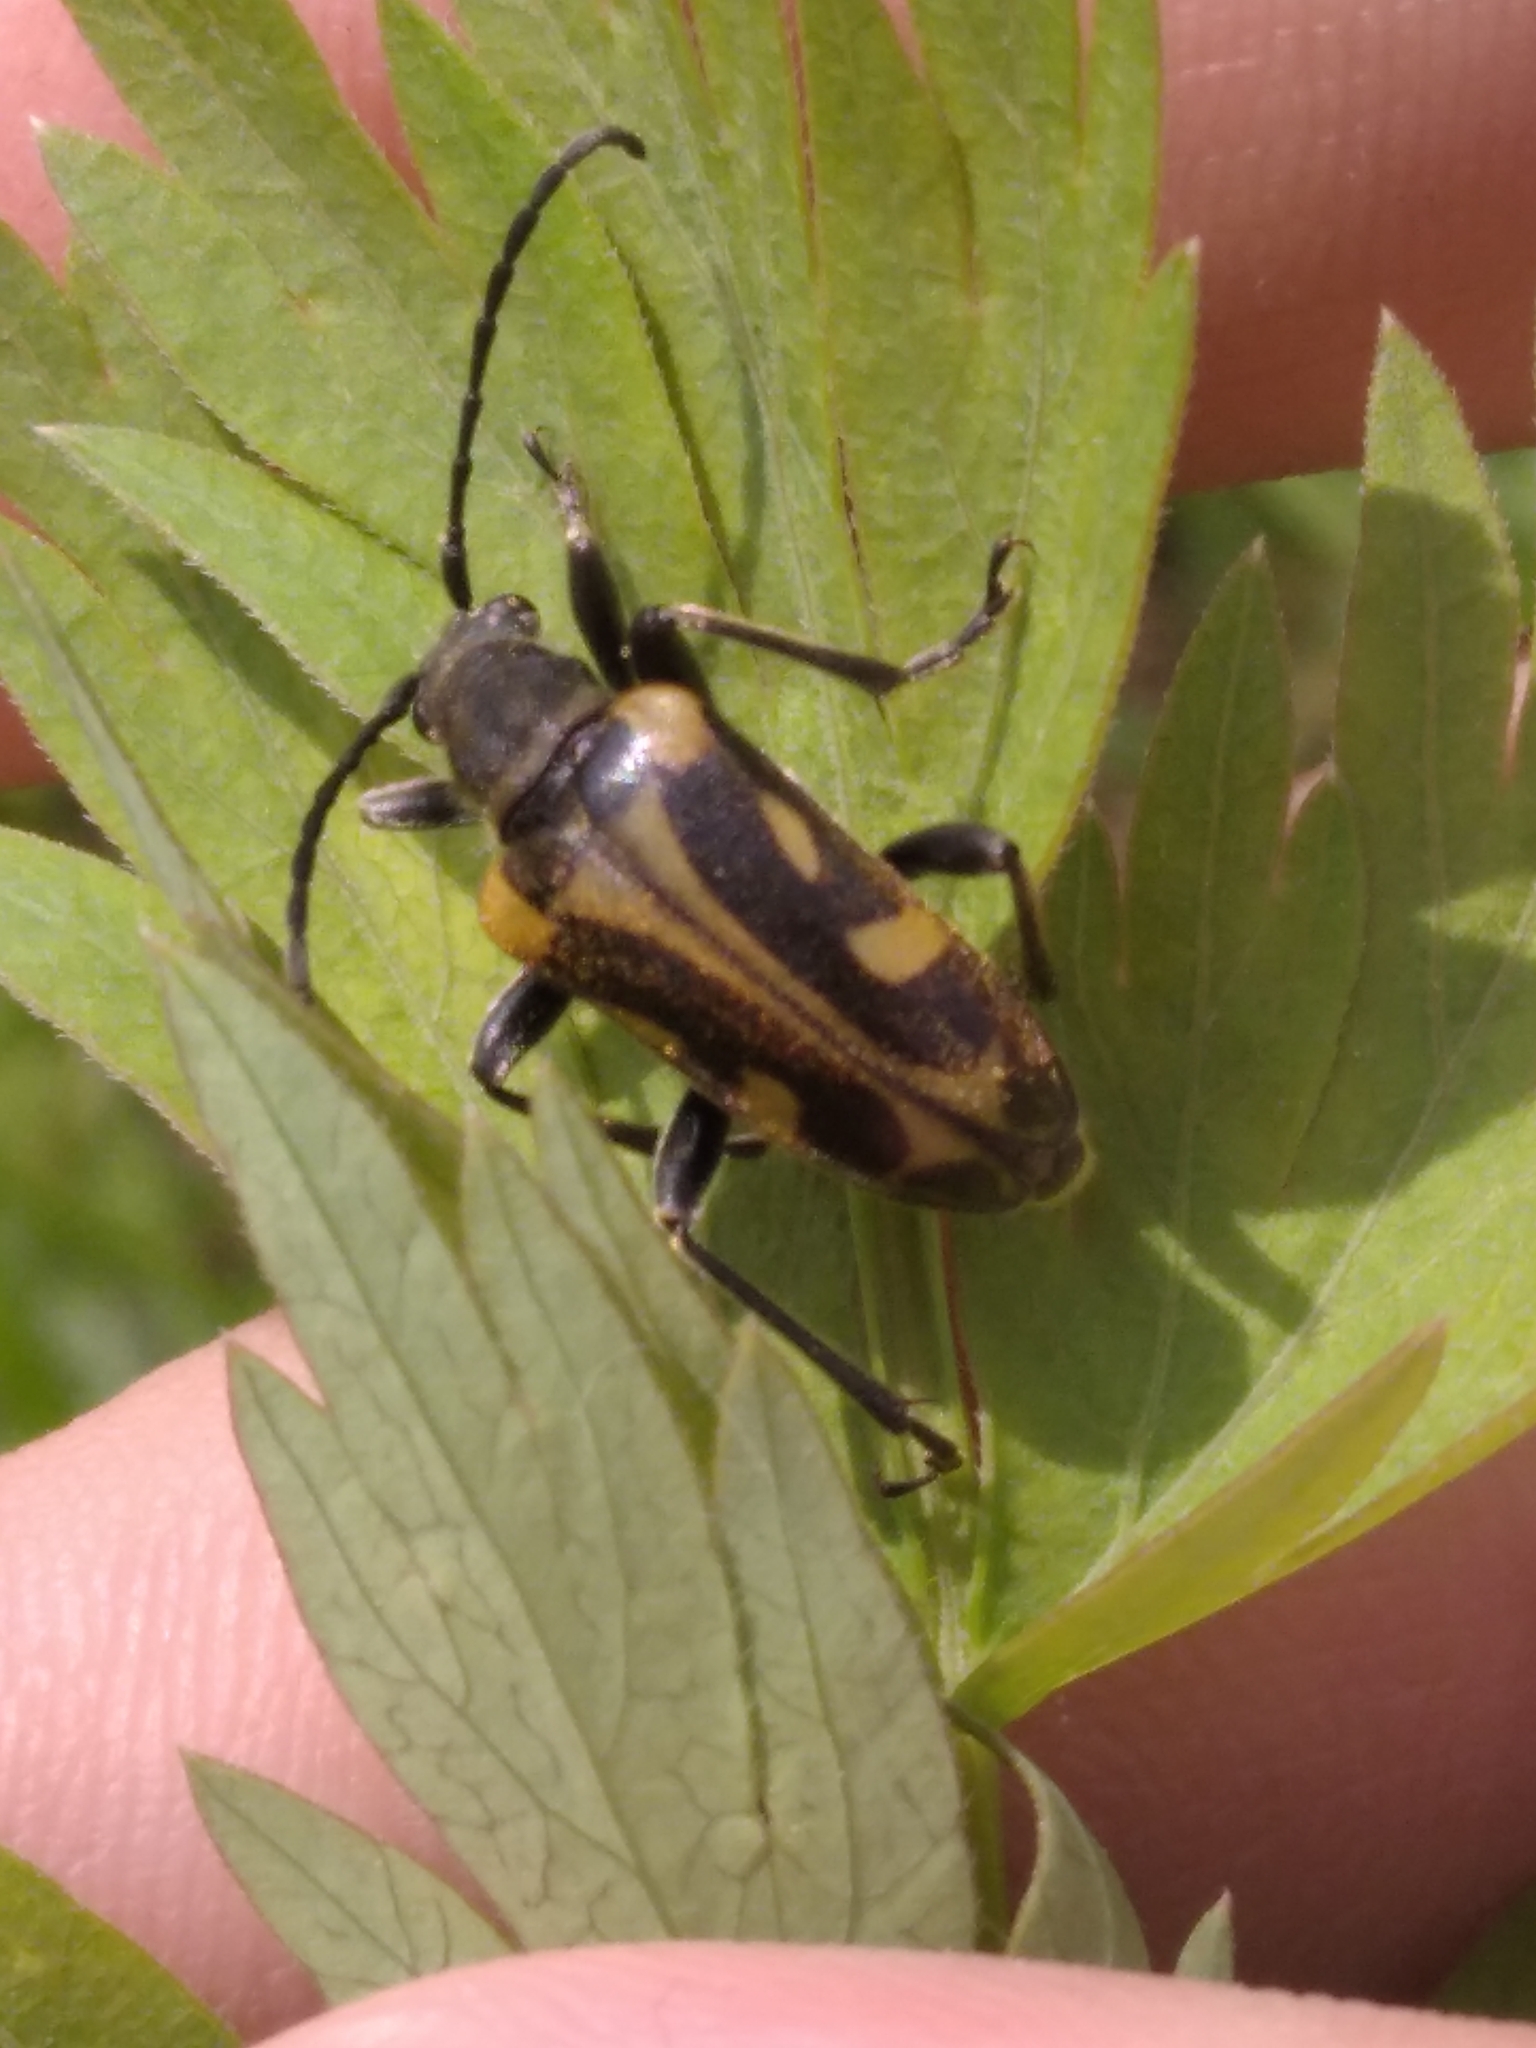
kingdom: Animalia
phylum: Arthropoda
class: Insecta
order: Coleoptera
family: Cerambycidae
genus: Brachyta
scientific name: Brachyta interrogationis
